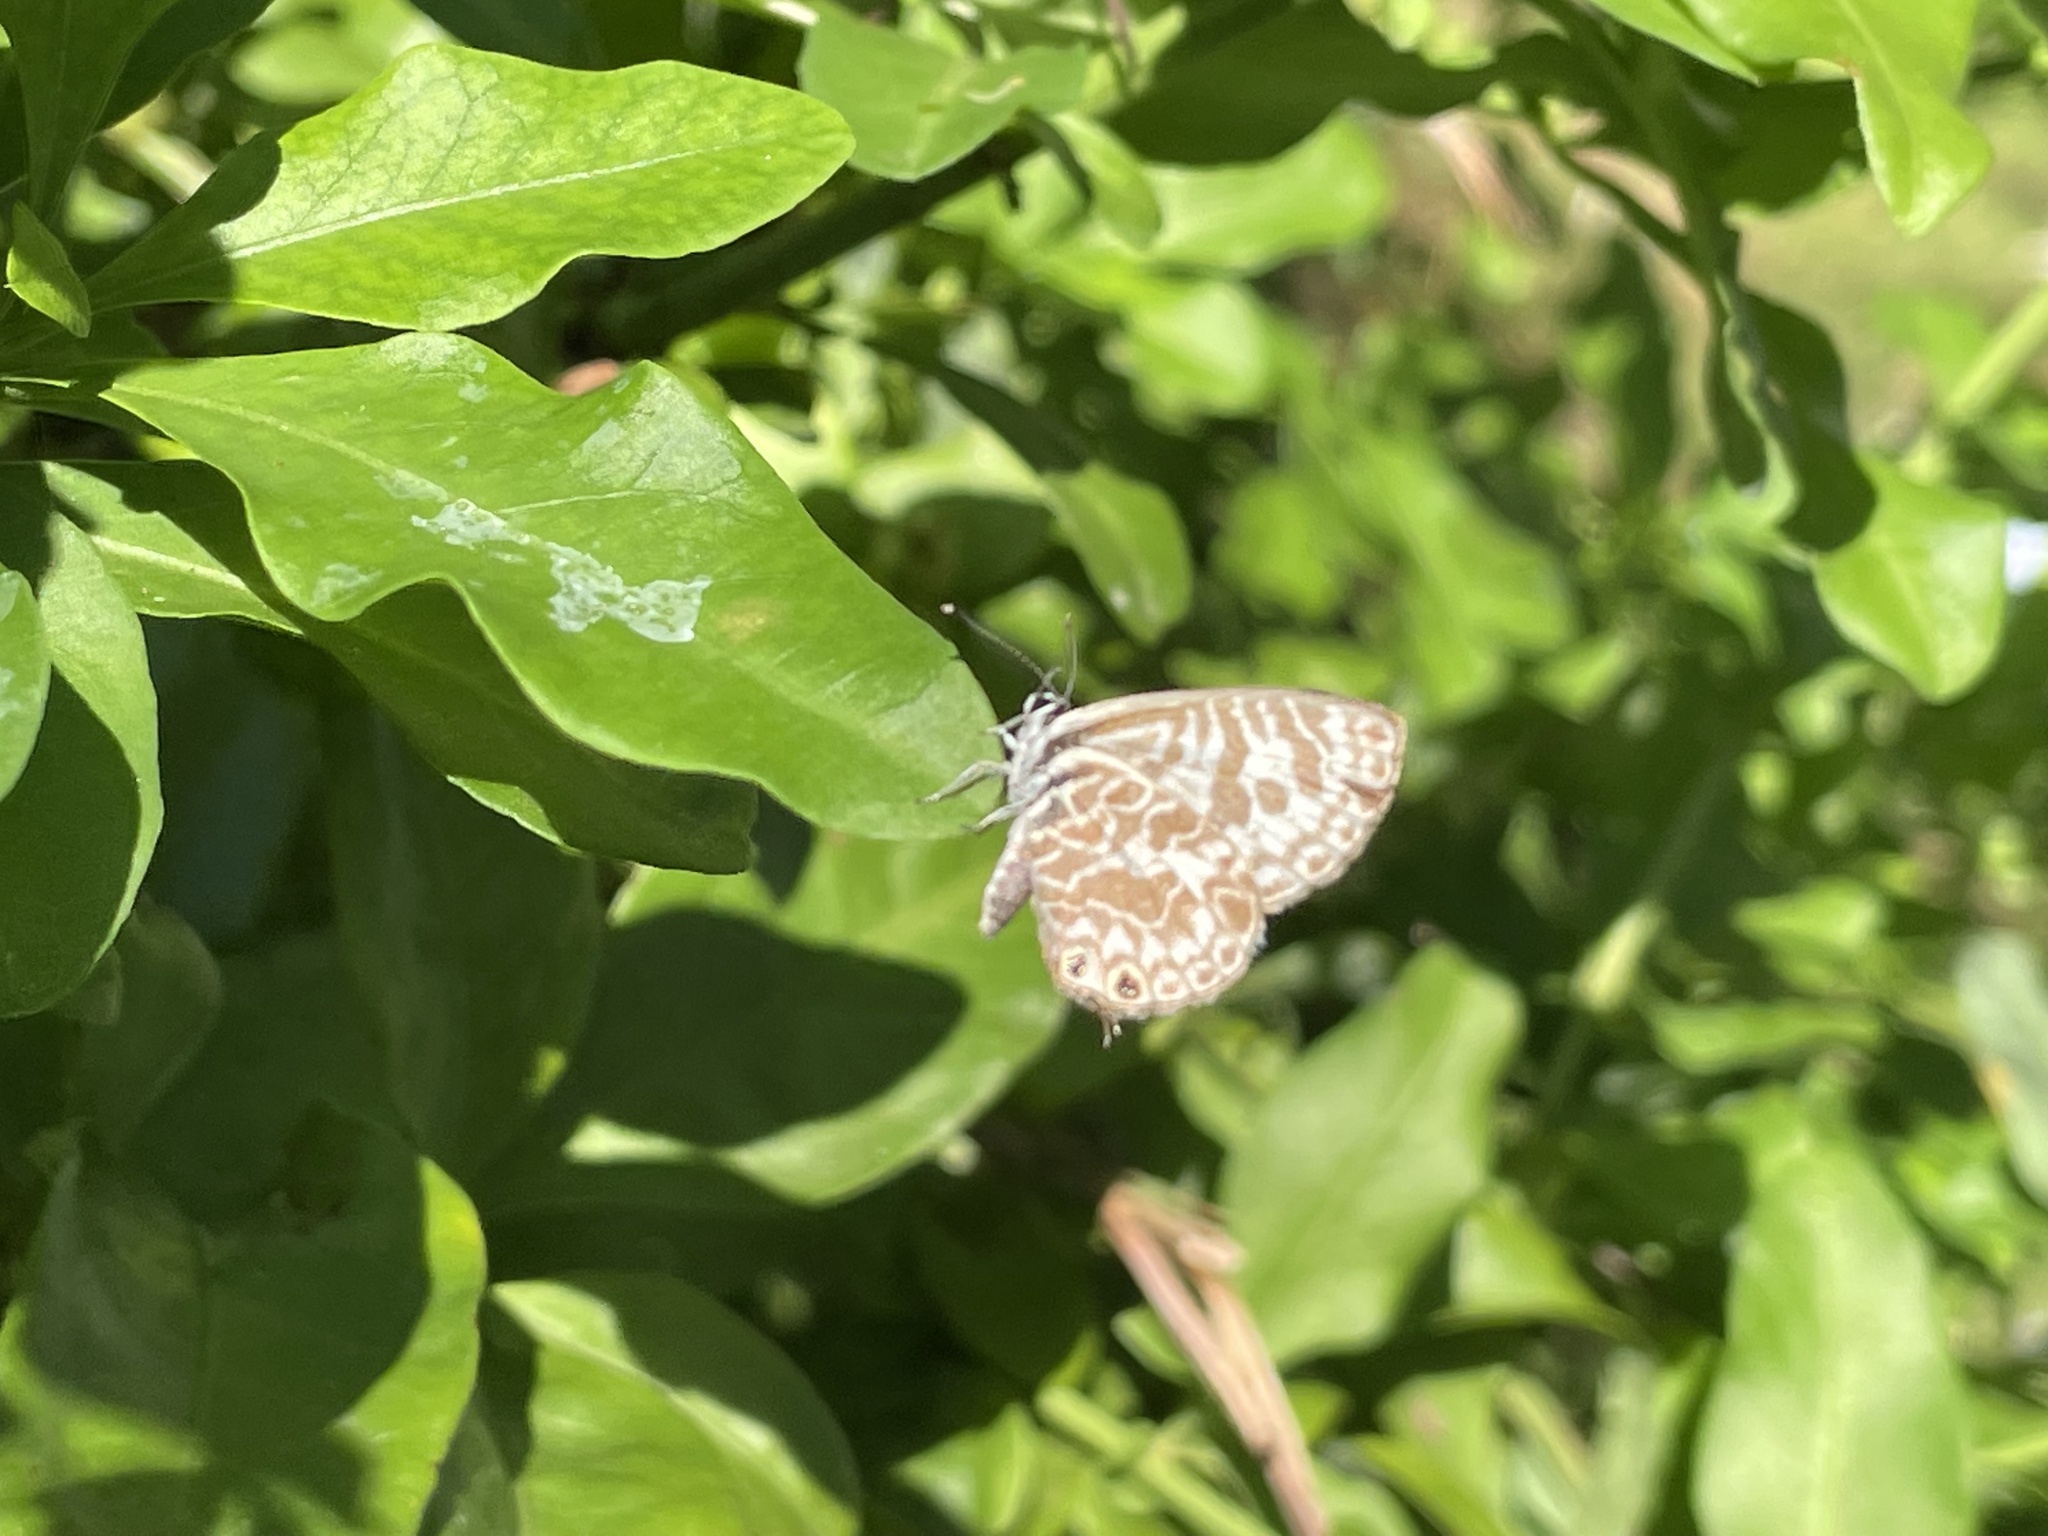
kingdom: Animalia
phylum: Arthropoda
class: Insecta
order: Lepidoptera
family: Lycaenidae
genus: Leptotes
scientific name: Leptotes plinius
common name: Zebra blue
